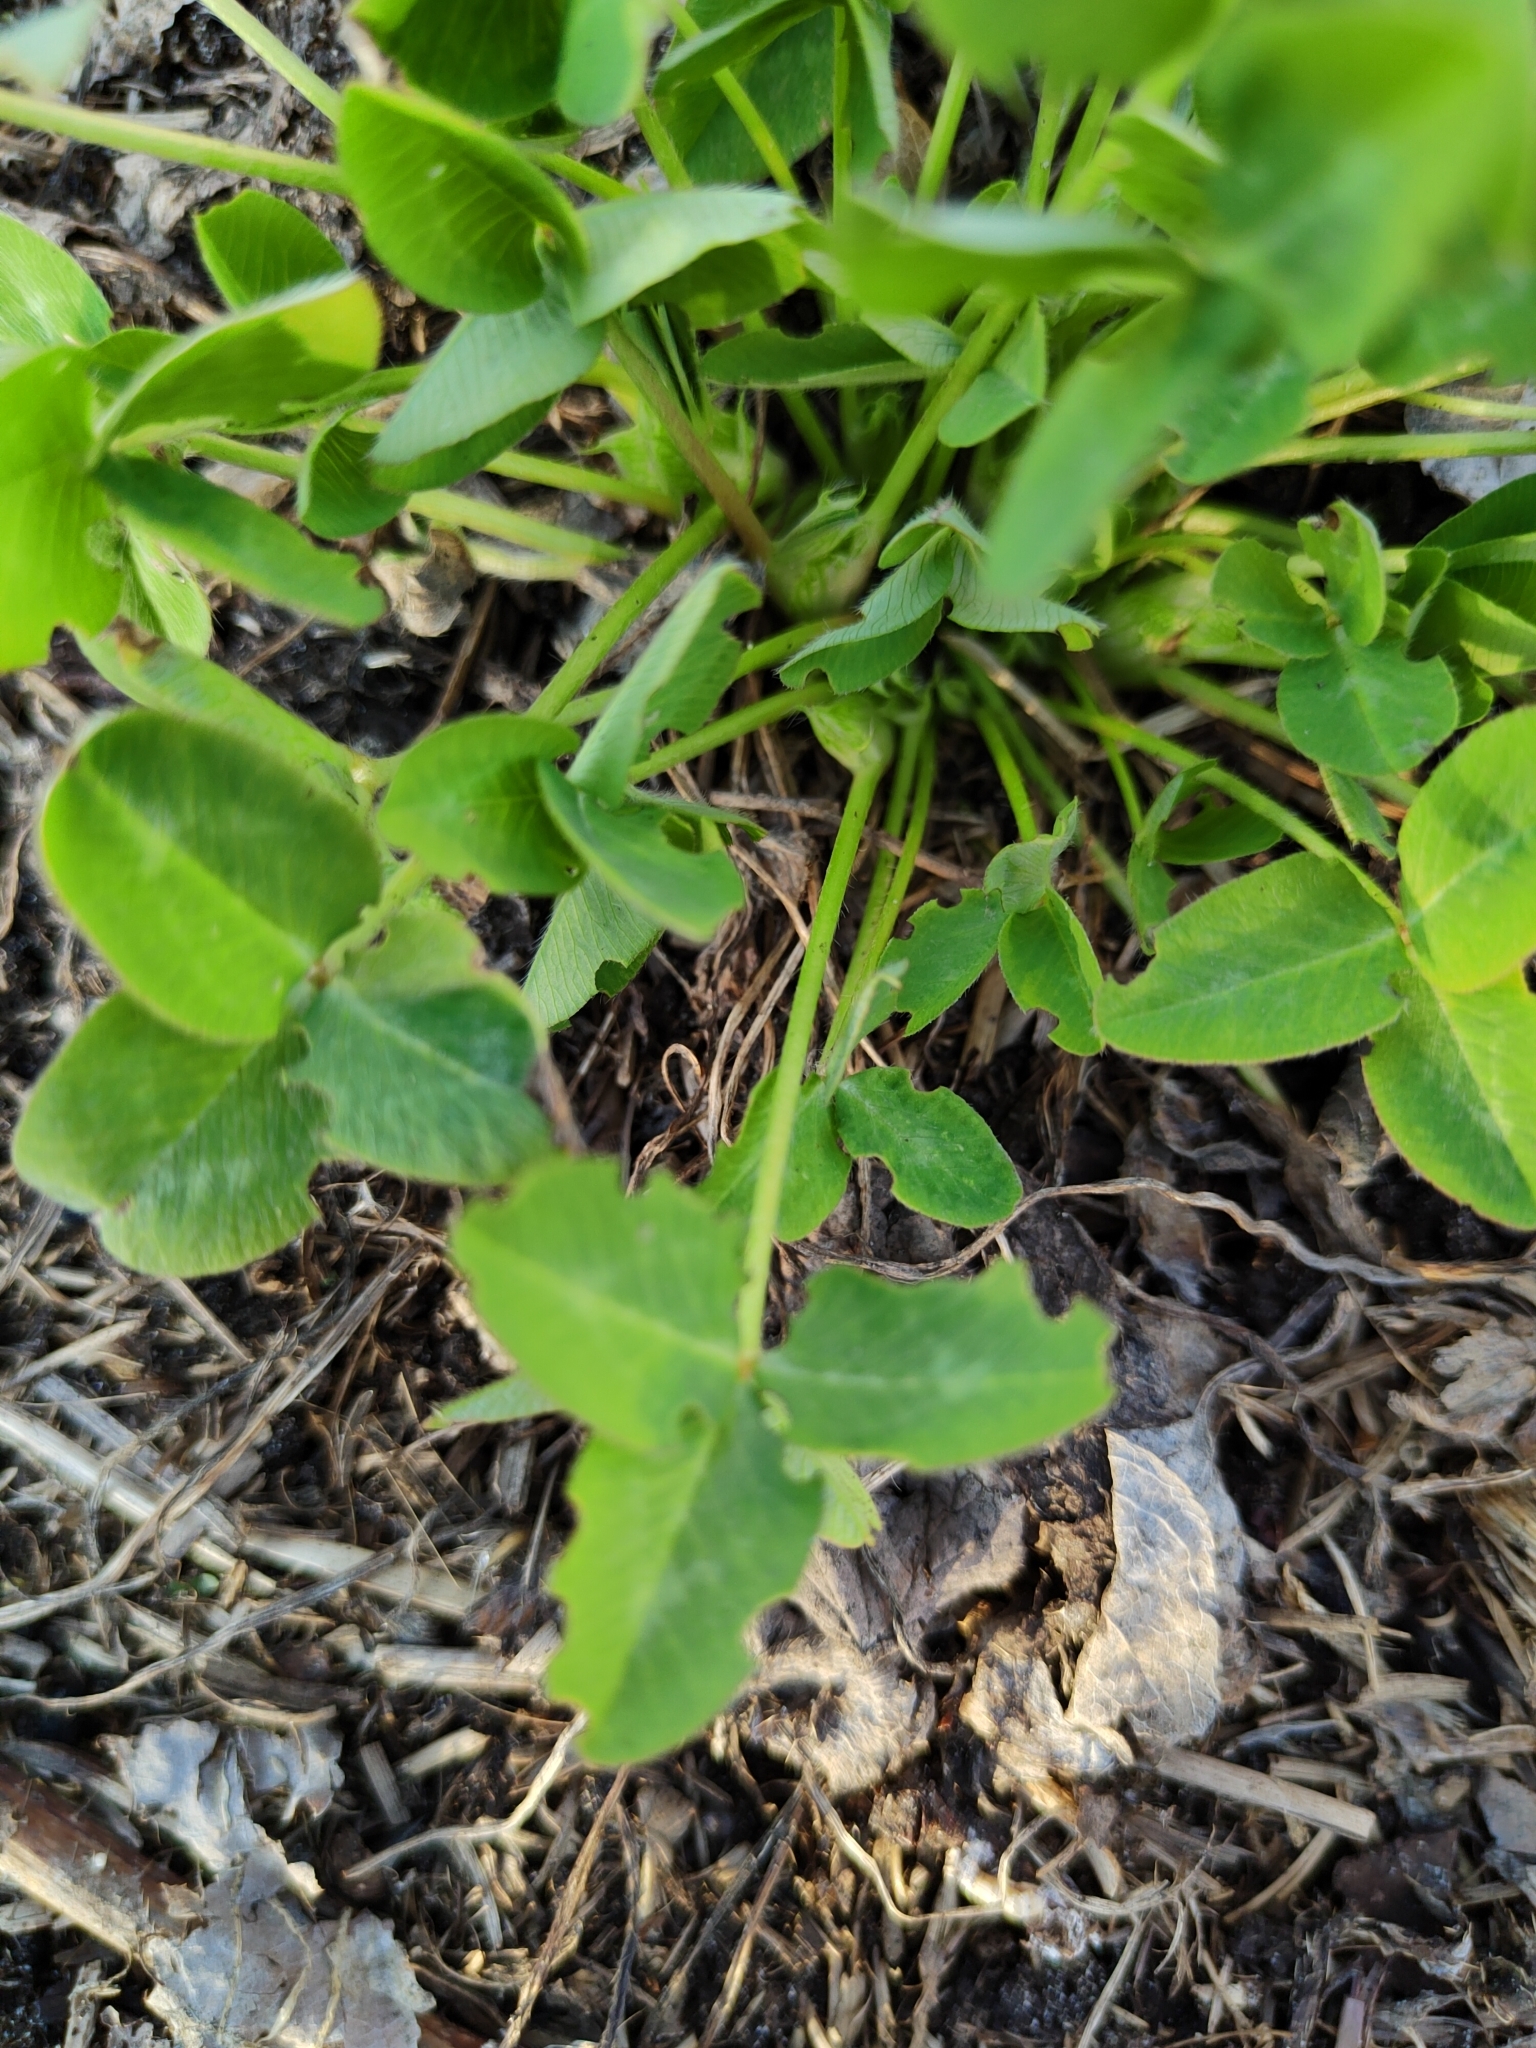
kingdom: Plantae
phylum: Tracheophyta
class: Magnoliopsida
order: Fabales
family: Fabaceae
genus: Trifolium
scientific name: Trifolium pratense
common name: Red clover
